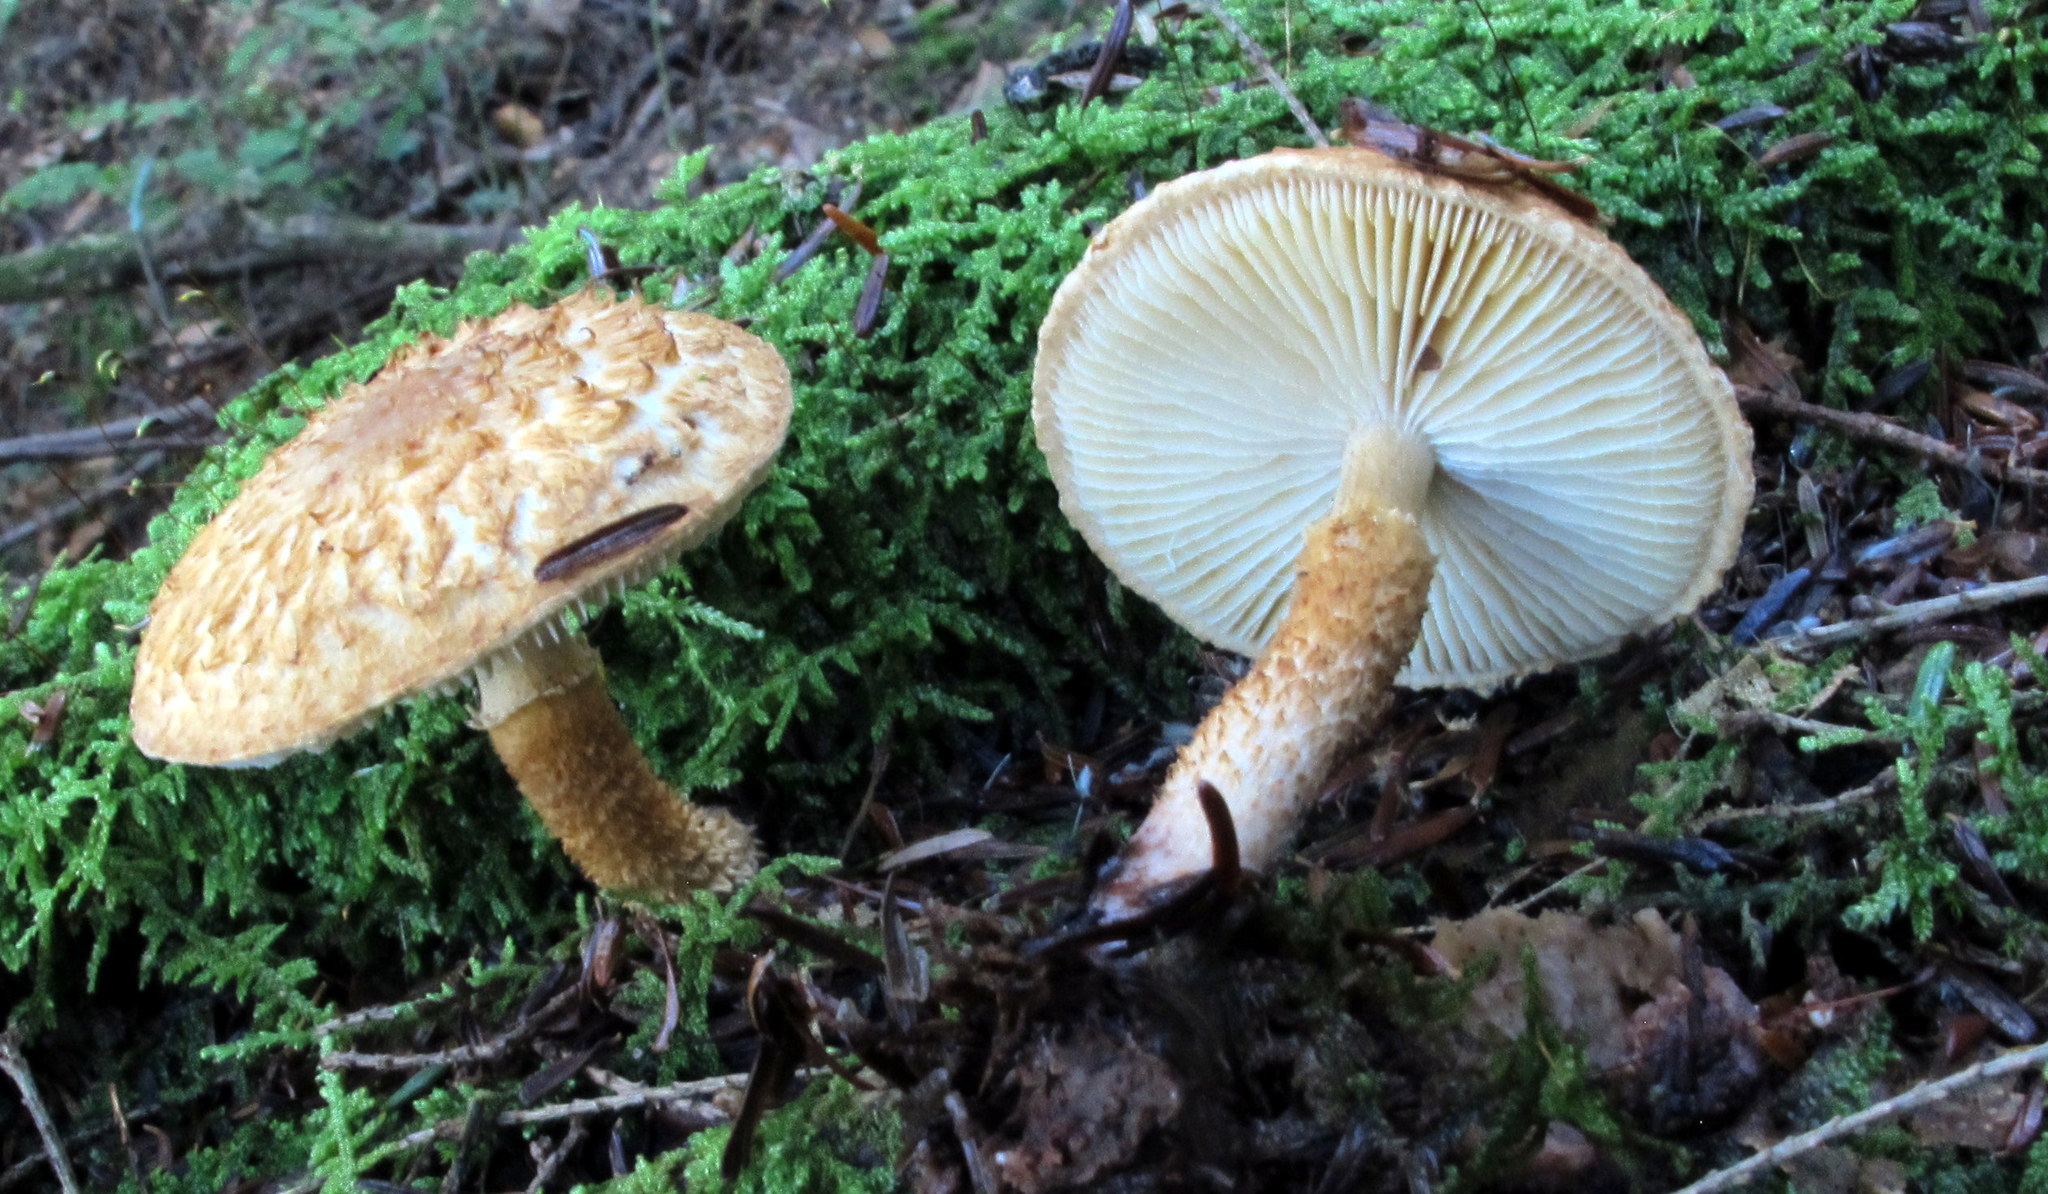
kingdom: Fungi
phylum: Basidiomycota
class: Agaricomycetes
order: Agaricales
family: Agaricaceae
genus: Leucopholiota
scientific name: Leucopholiota decorosa
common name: Decorated pholiota
